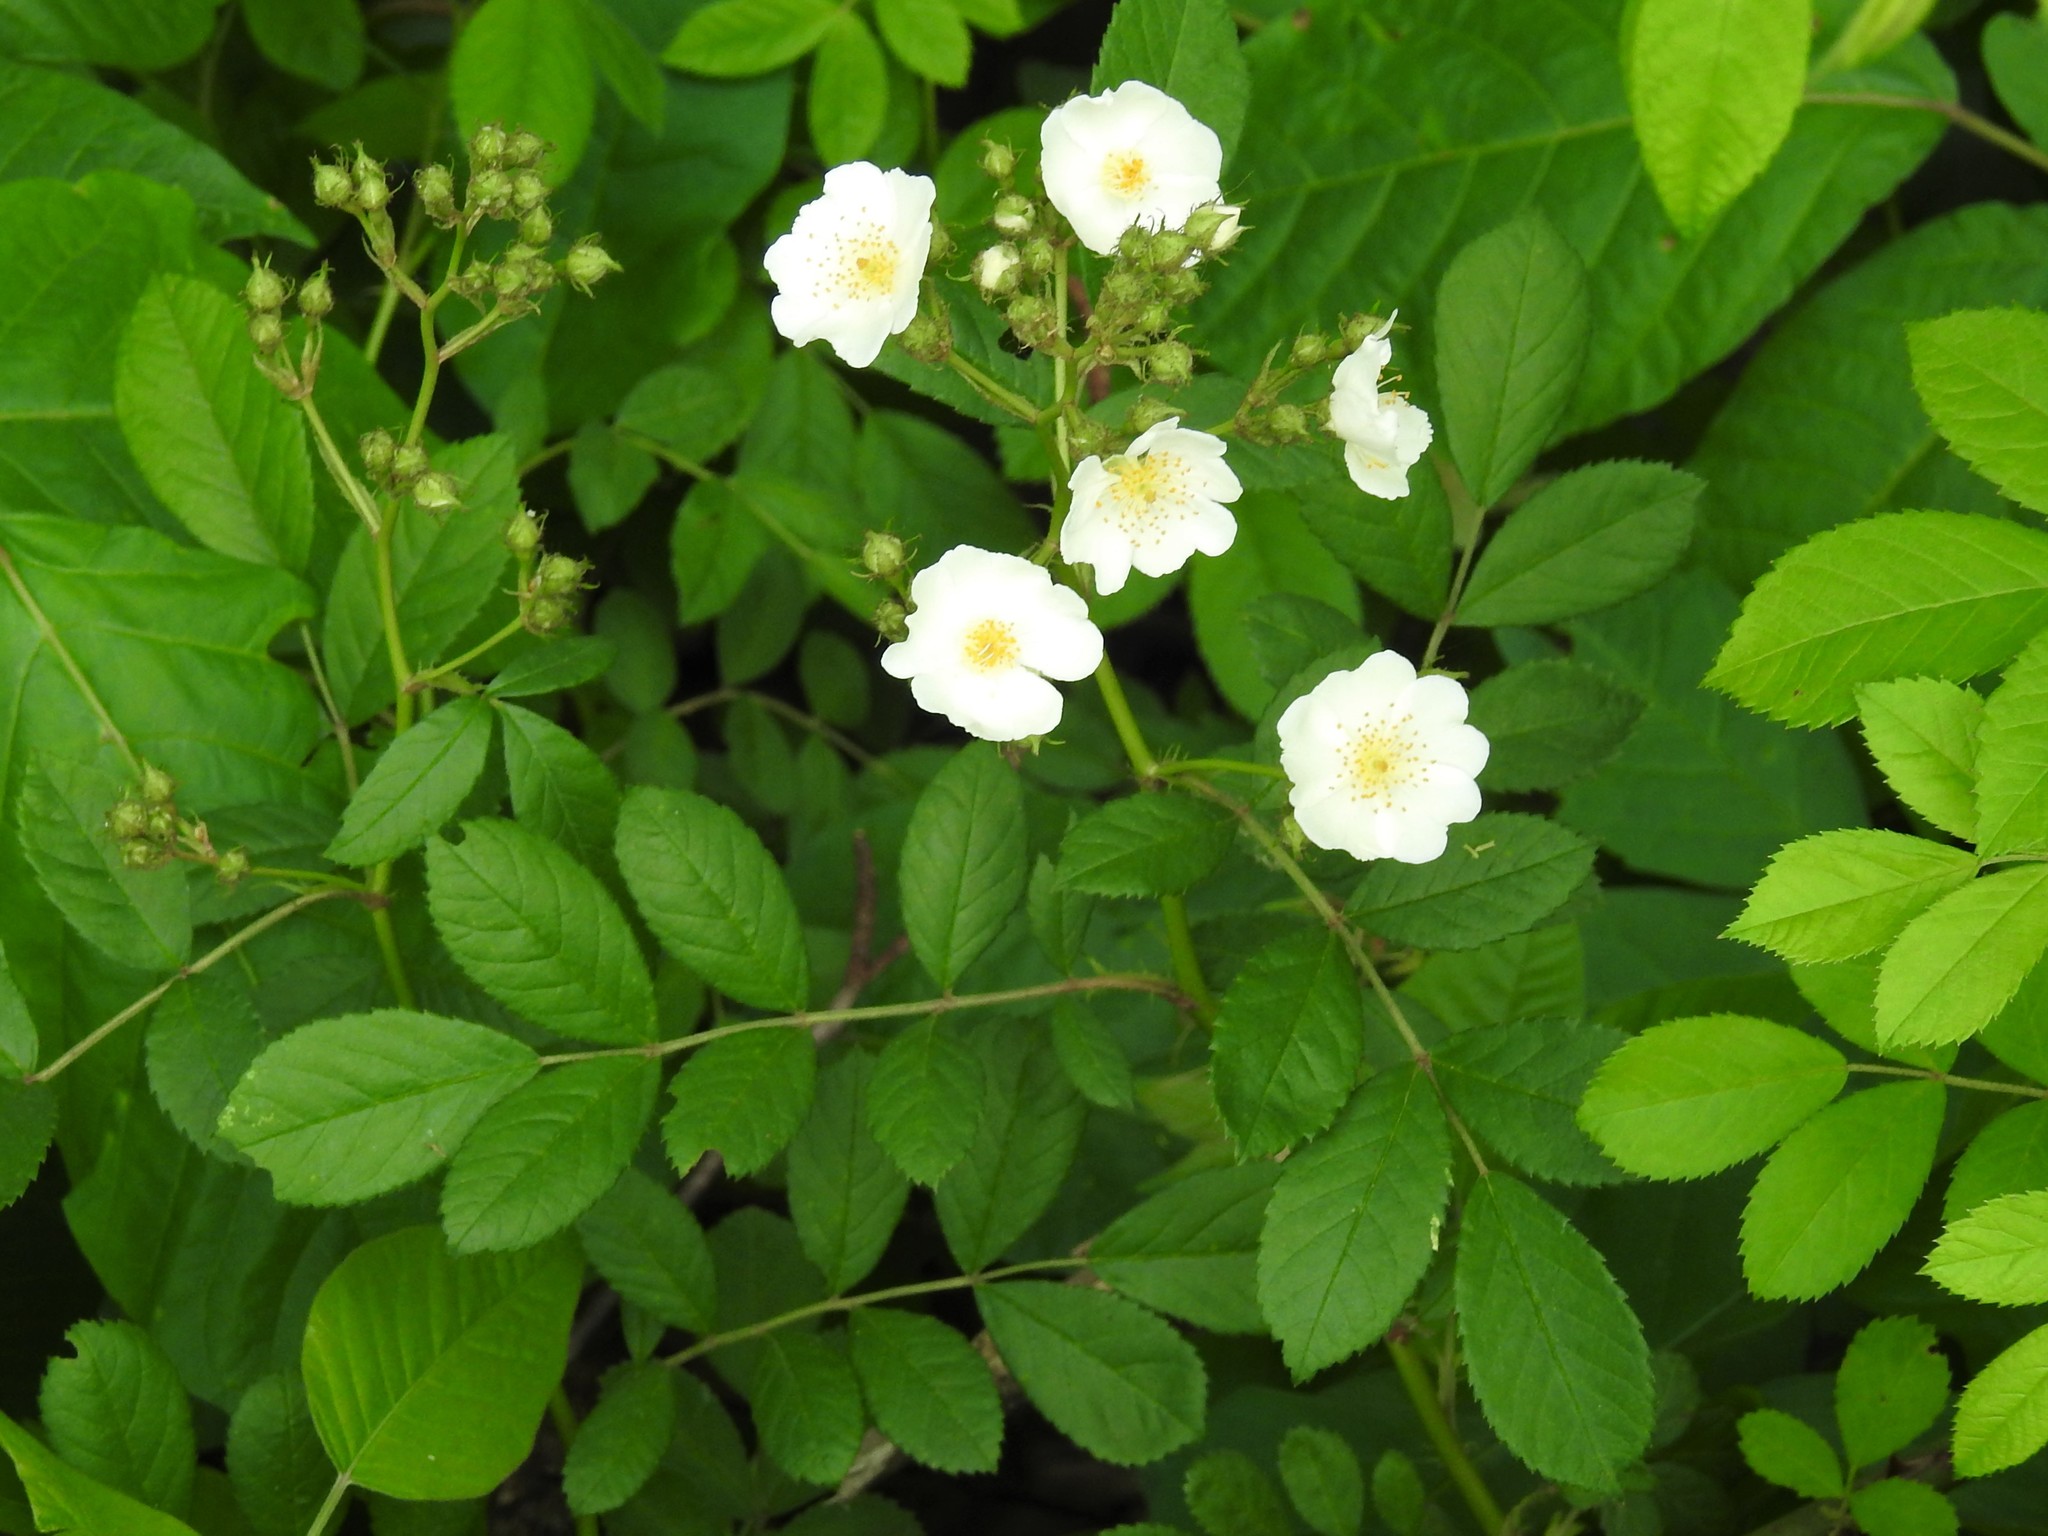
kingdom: Plantae
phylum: Tracheophyta
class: Magnoliopsida
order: Rosales
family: Rosaceae
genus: Rosa
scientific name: Rosa multiflora
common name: Multiflora rose
